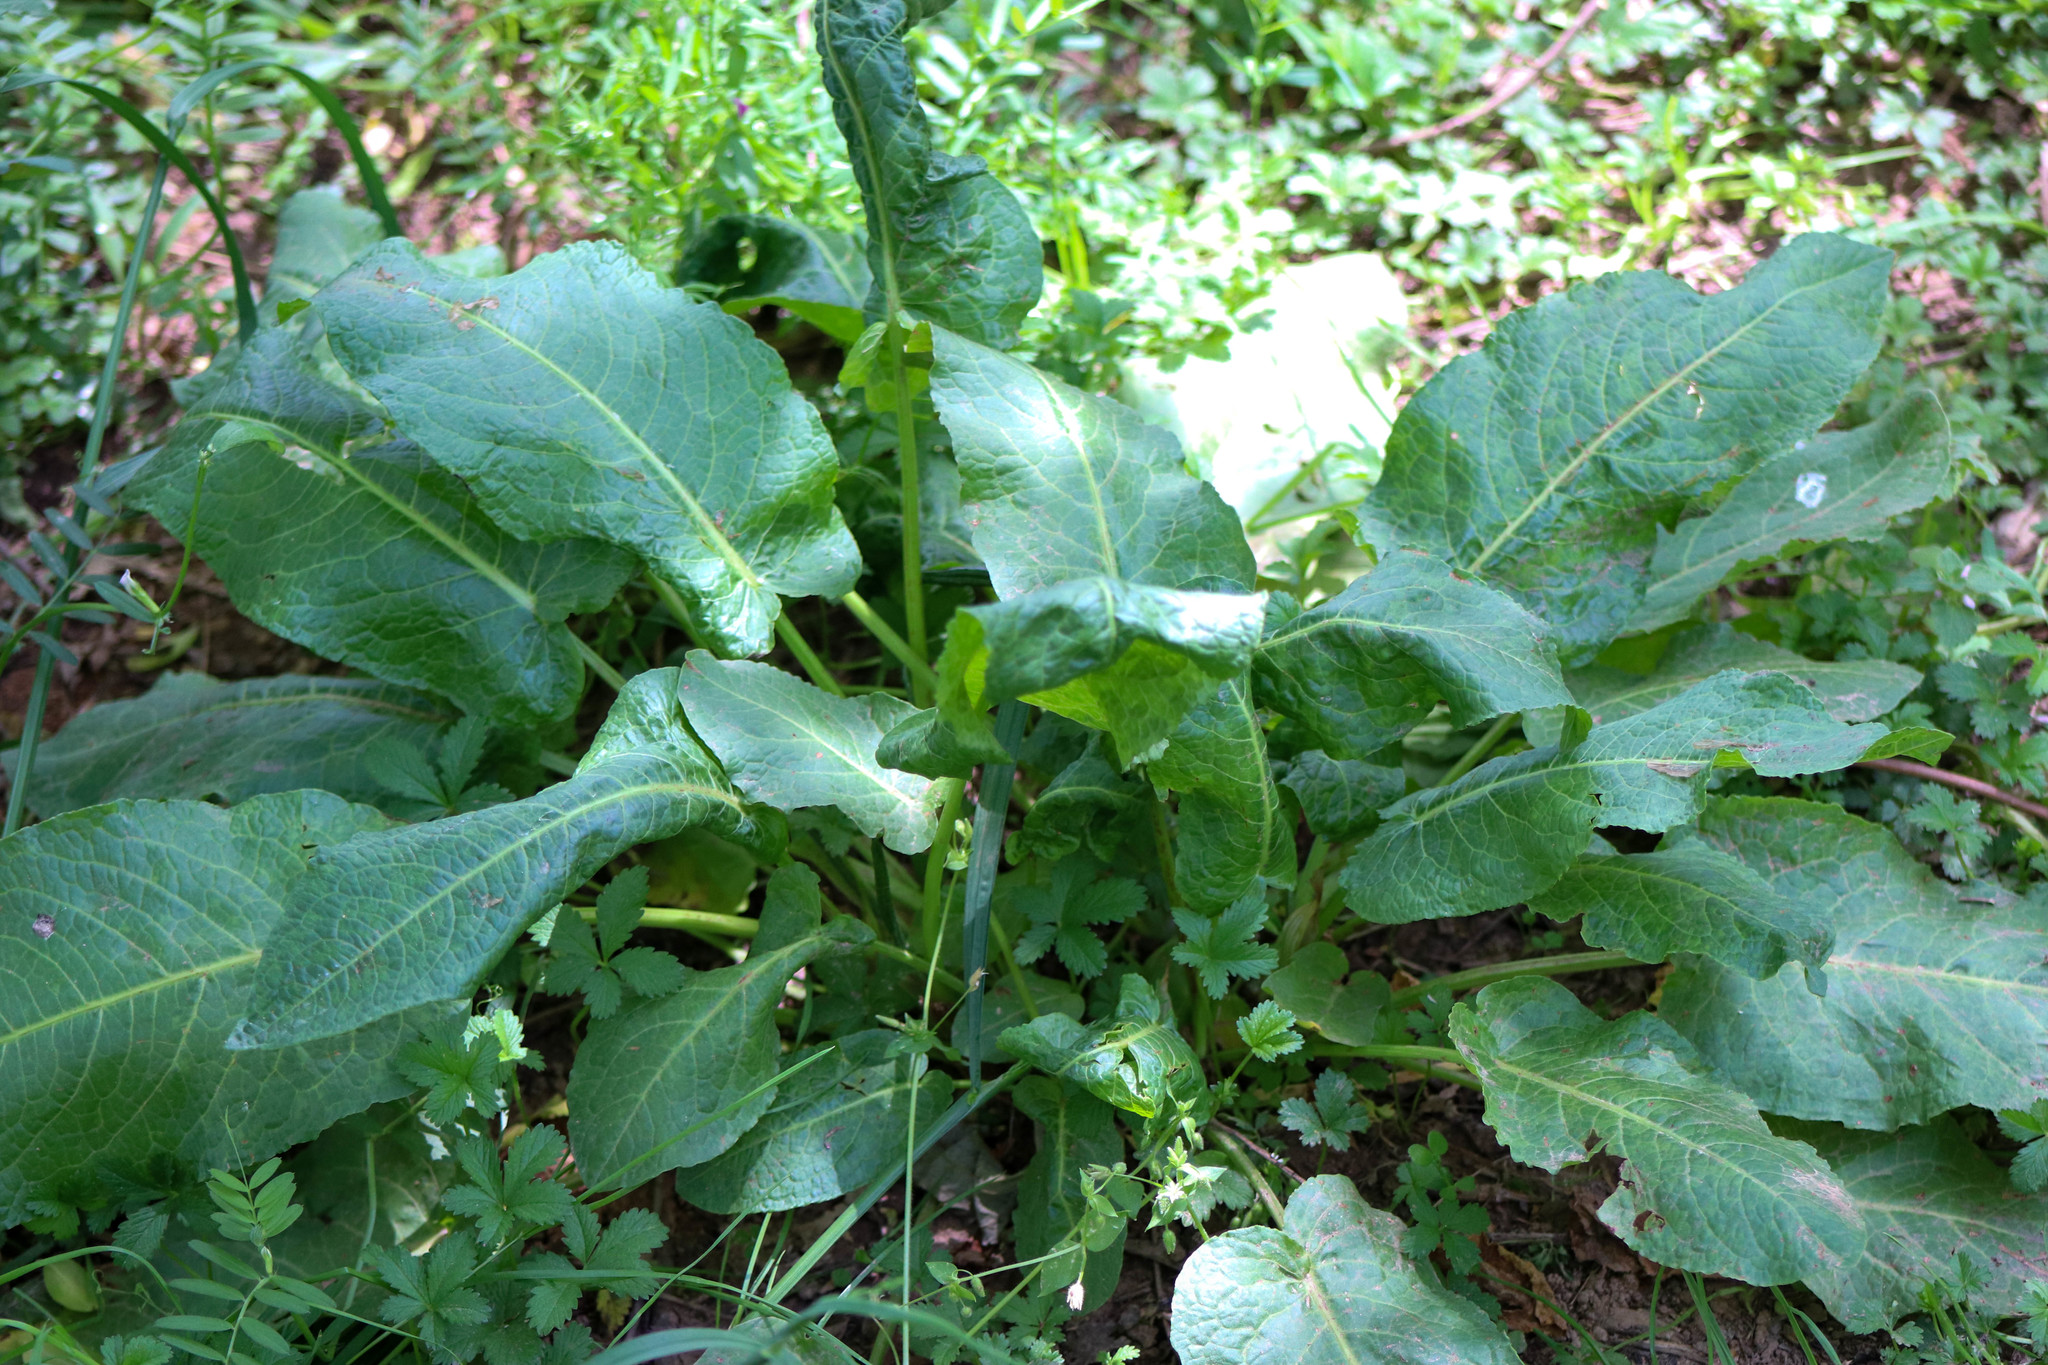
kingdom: Plantae
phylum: Tracheophyta
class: Magnoliopsida
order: Caryophyllales
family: Polygonaceae
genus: Rumex
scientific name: Rumex obtusifolius
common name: Bitter dock
